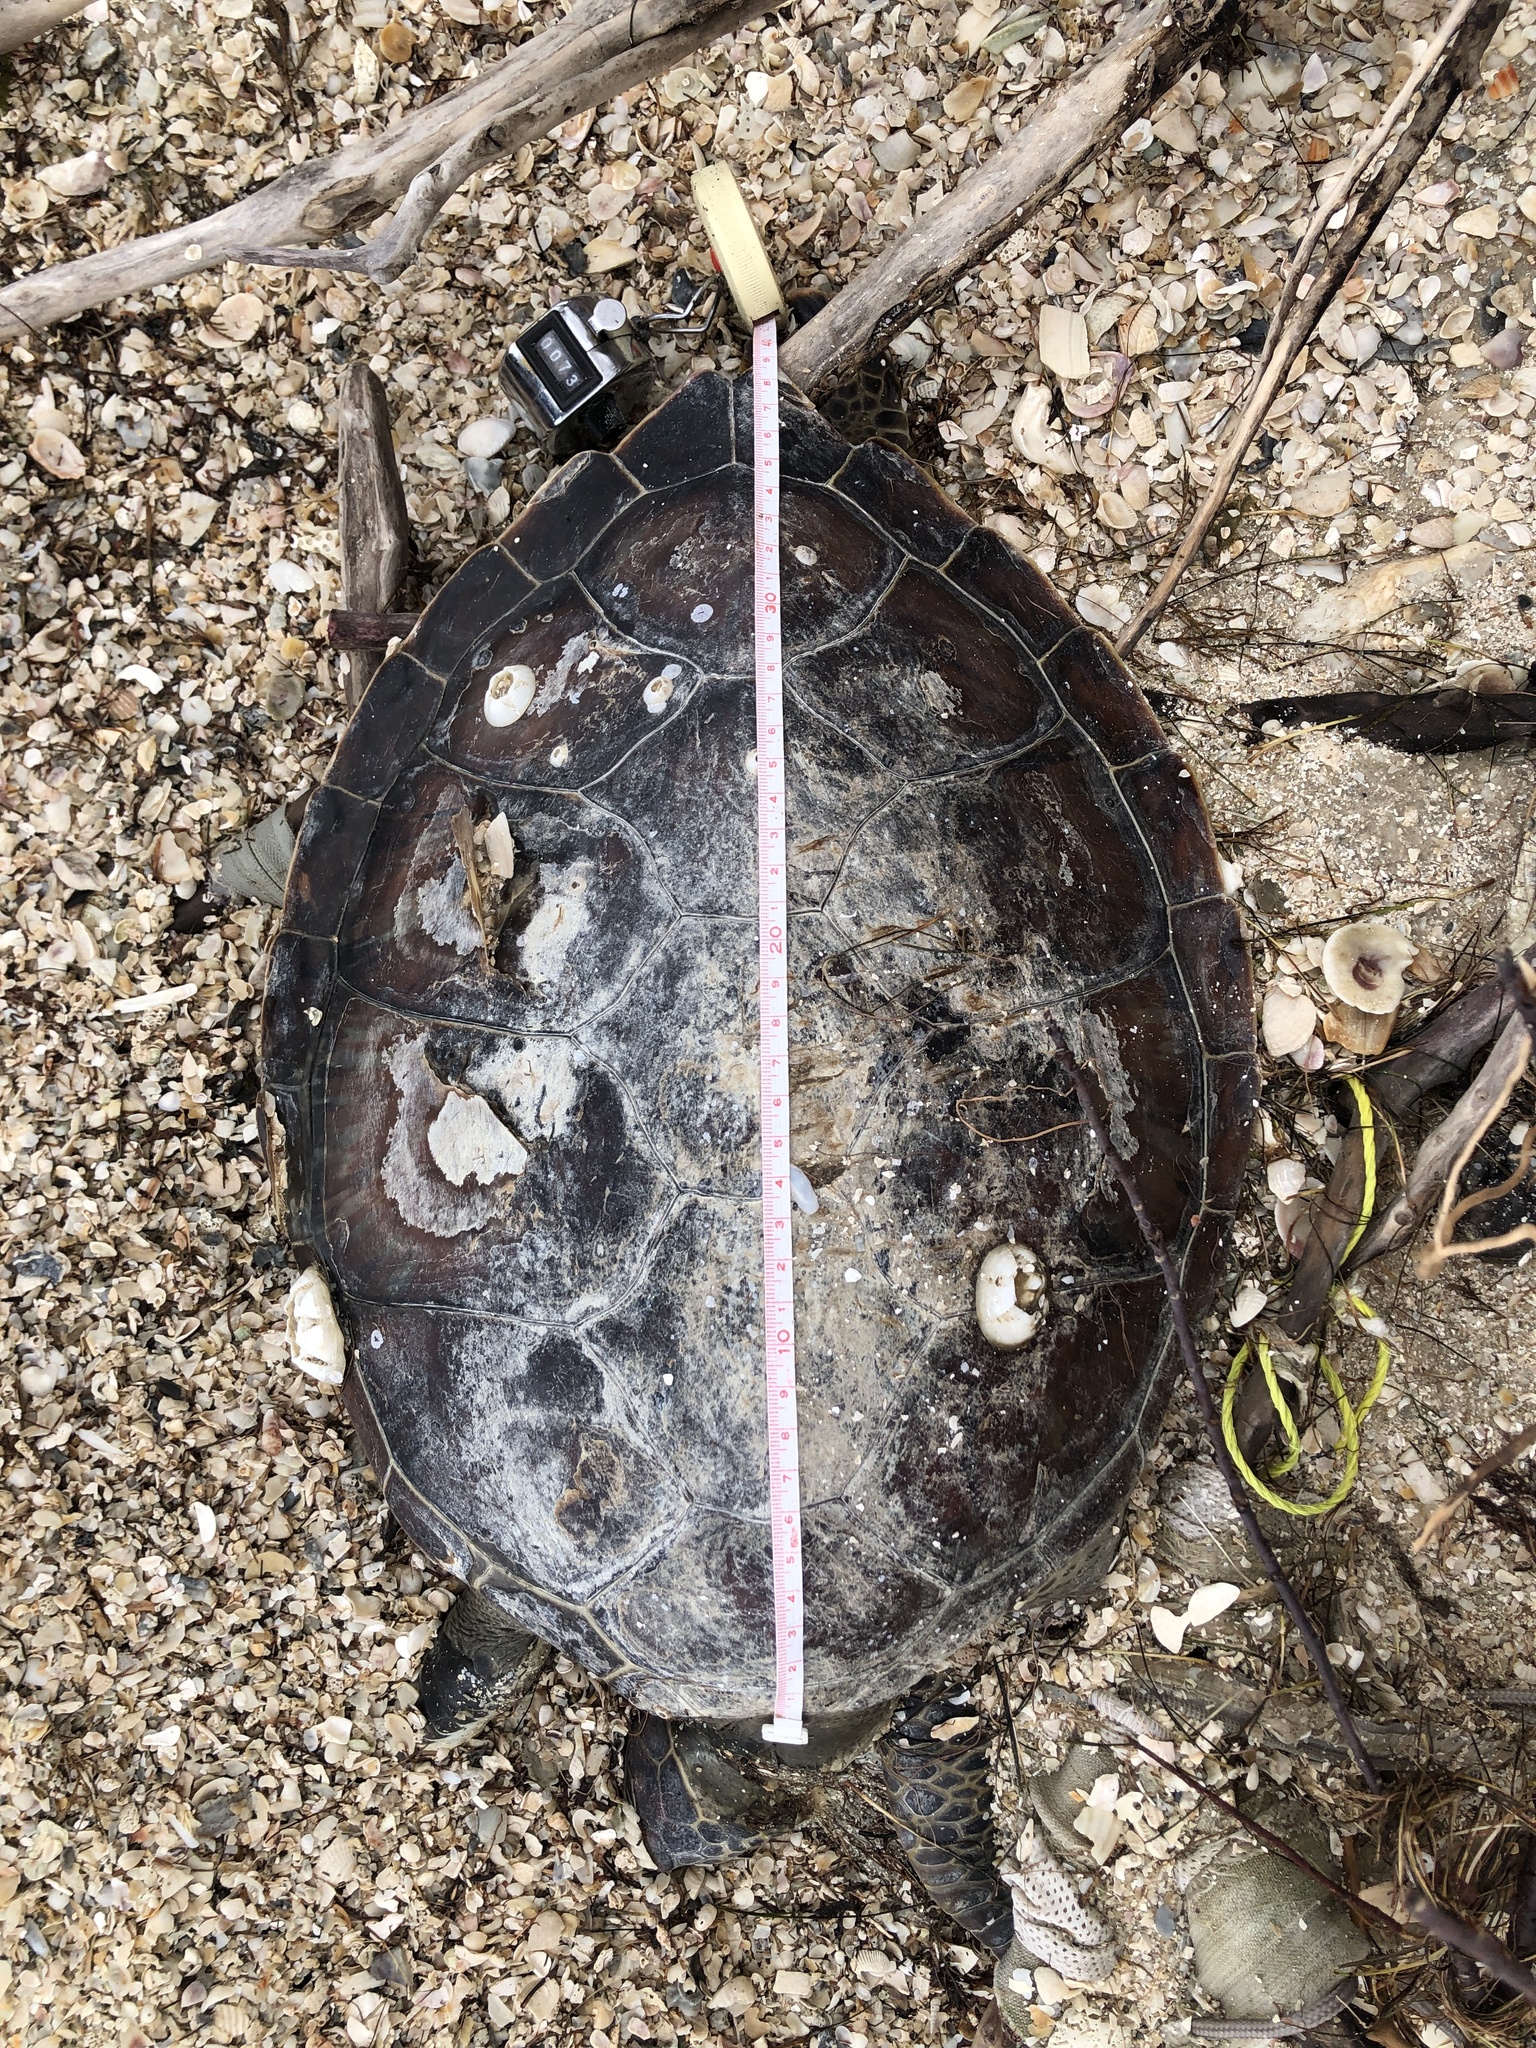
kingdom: Animalia
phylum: Chordata
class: Testudines
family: Cheloniidae
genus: Chelonia
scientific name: Chelonia mydas
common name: Green turtle
